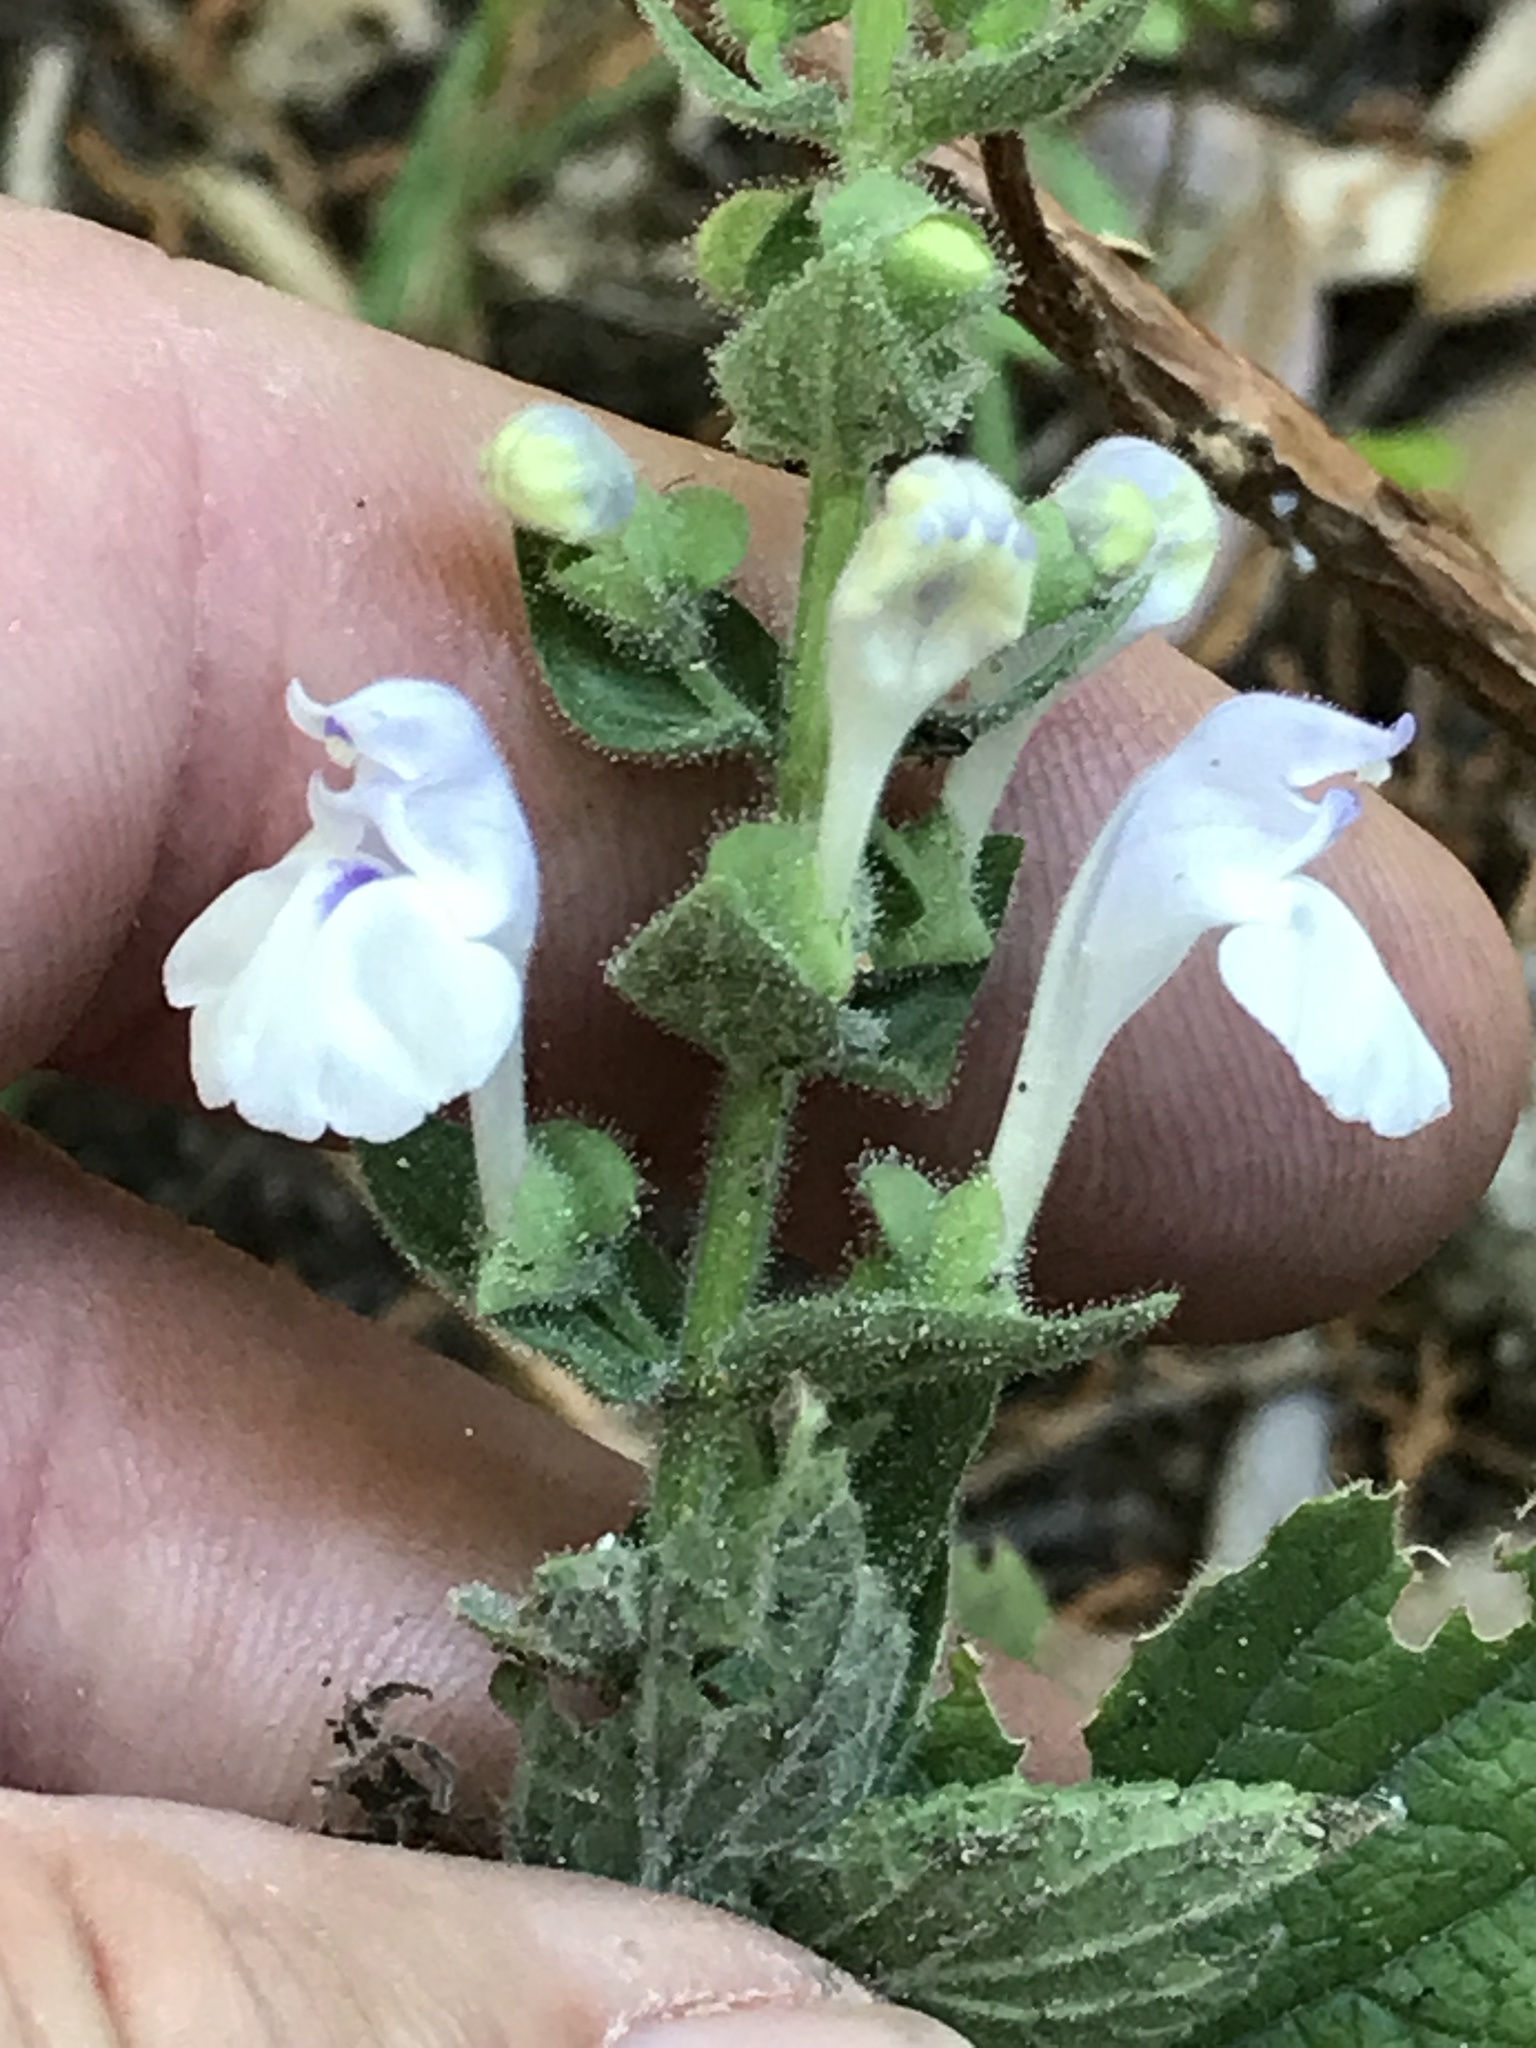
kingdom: Plantae
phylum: Tracheophyta
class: Magnoliopsida
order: Lamiales
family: Lamiaceae
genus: Scutellaria
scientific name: Scutellaria ovata
